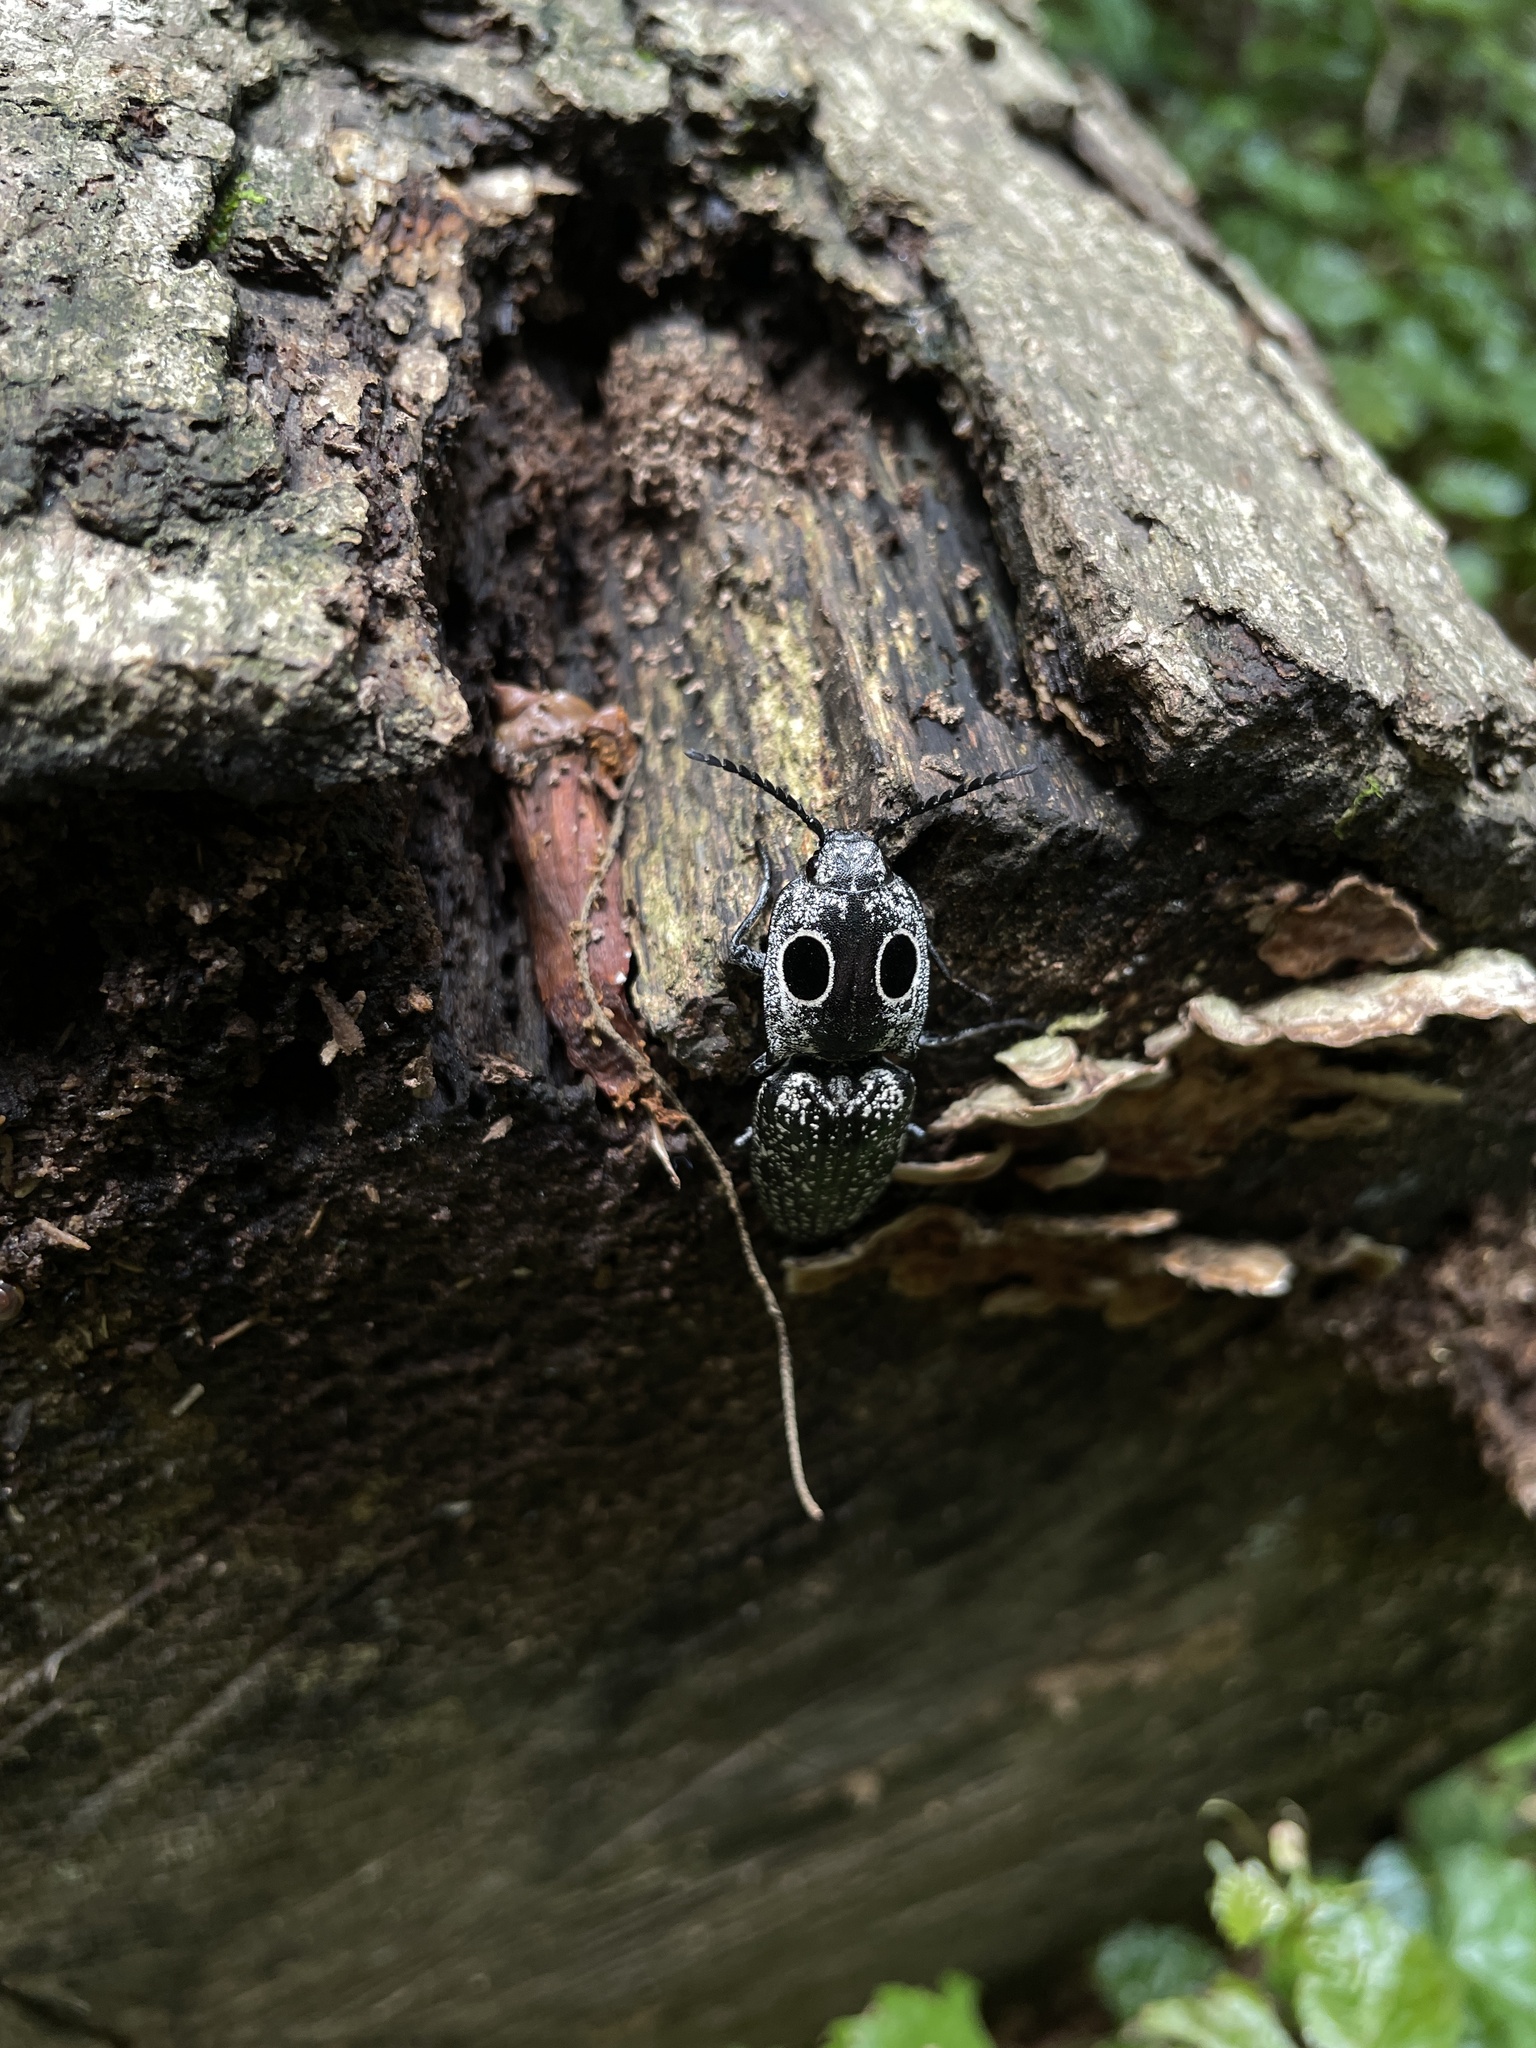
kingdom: Animalia
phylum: Arthropoda
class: Insecta
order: Coleoptera
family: Elateridae
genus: Alaus
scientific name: Alaus oculatus
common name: Eastern eyed click beetle
